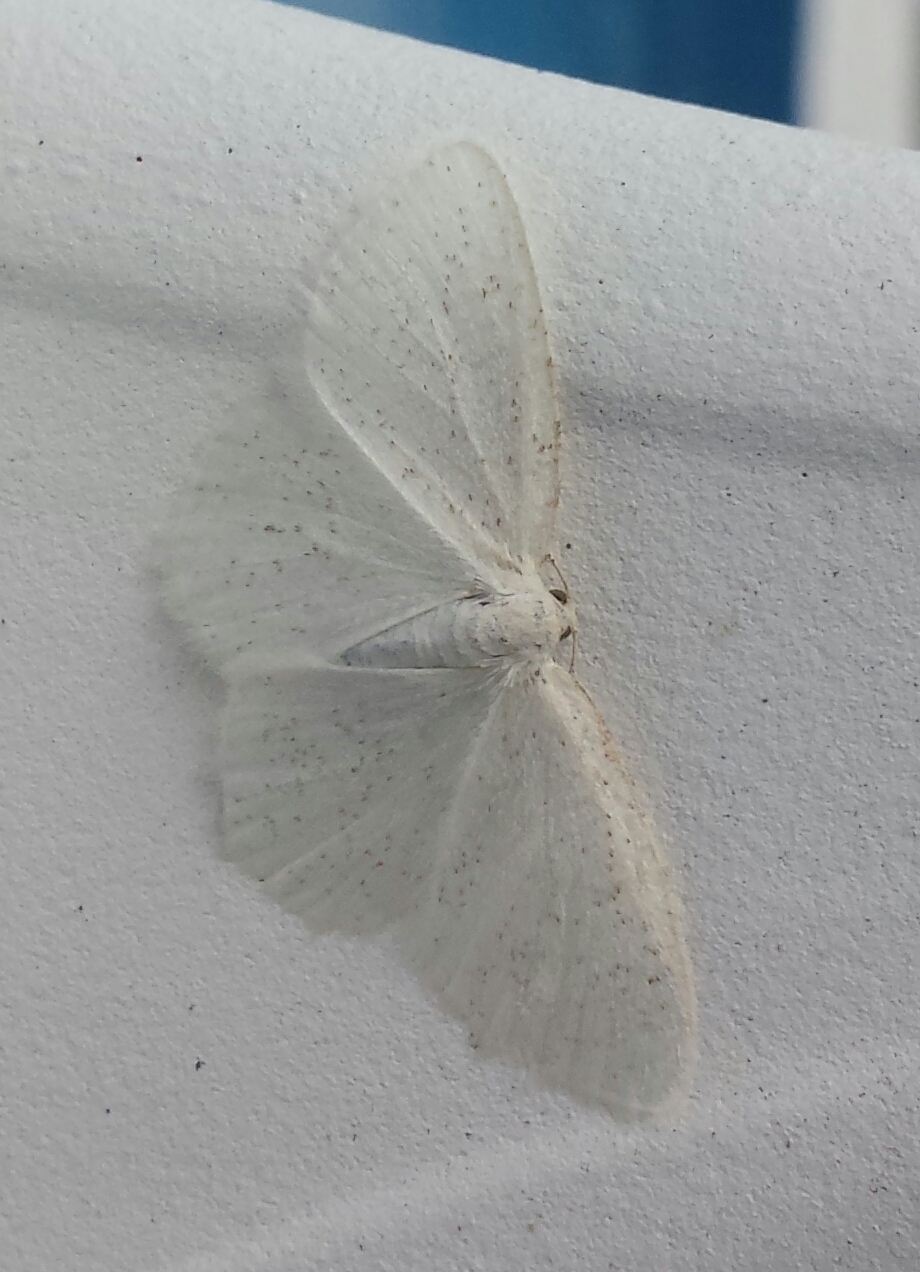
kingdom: Animalia
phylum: Arthropoda
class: Insecta
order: Lepidoptera
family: Geometridae
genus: Protitame
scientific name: Protitame virginalis
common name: Virgin moth
